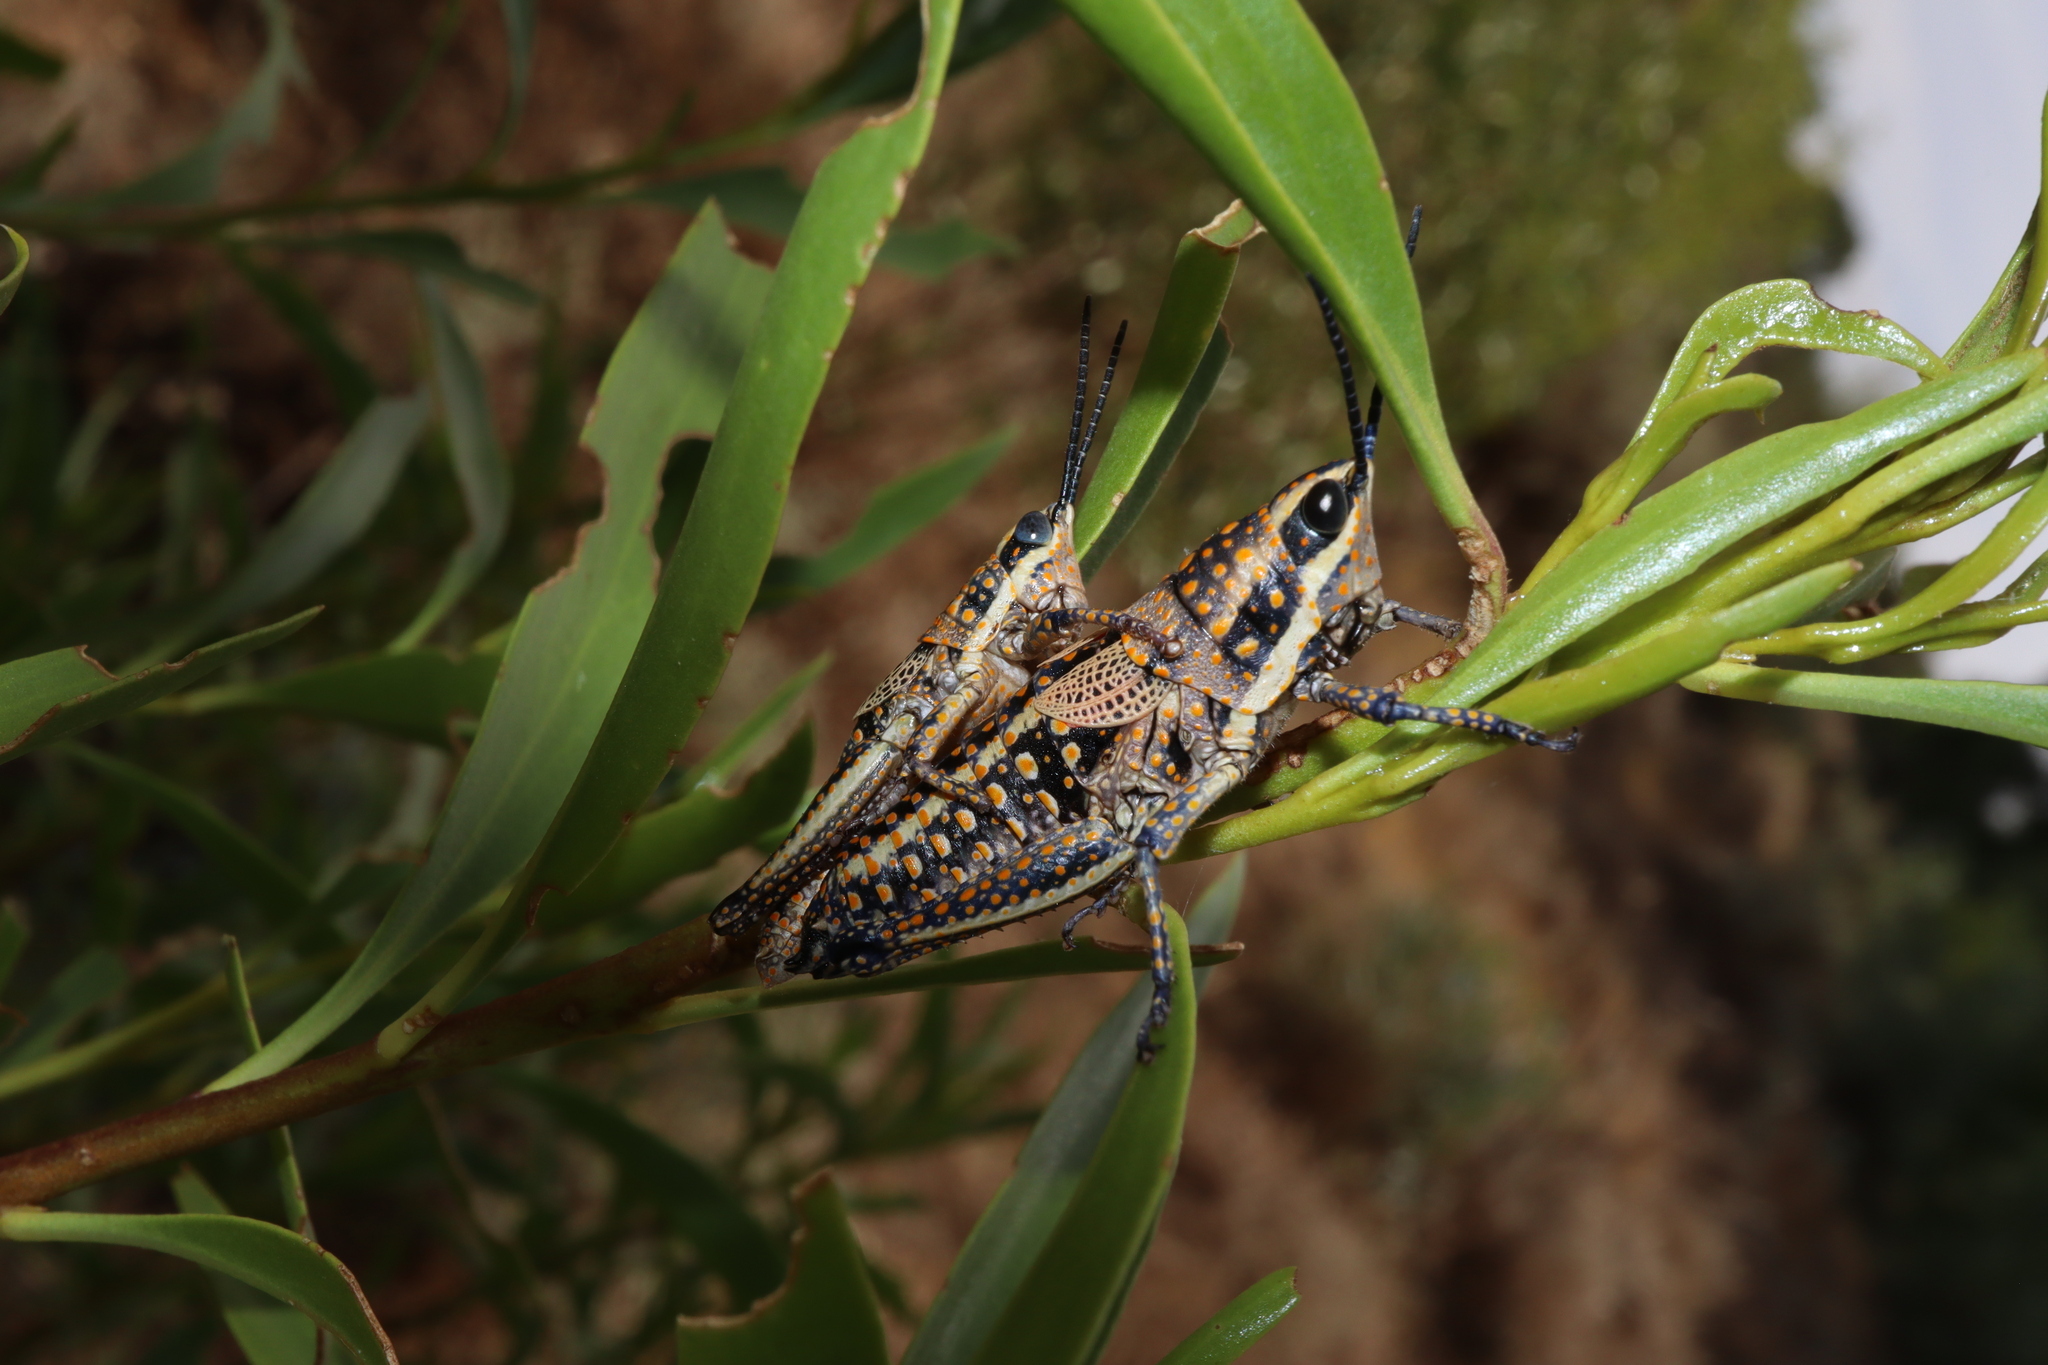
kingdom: Animalia
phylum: Arthropoda
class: Insecta
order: Orthoptera
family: Pyrgomorphidae
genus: Monistria
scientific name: Monistria pustulifera
